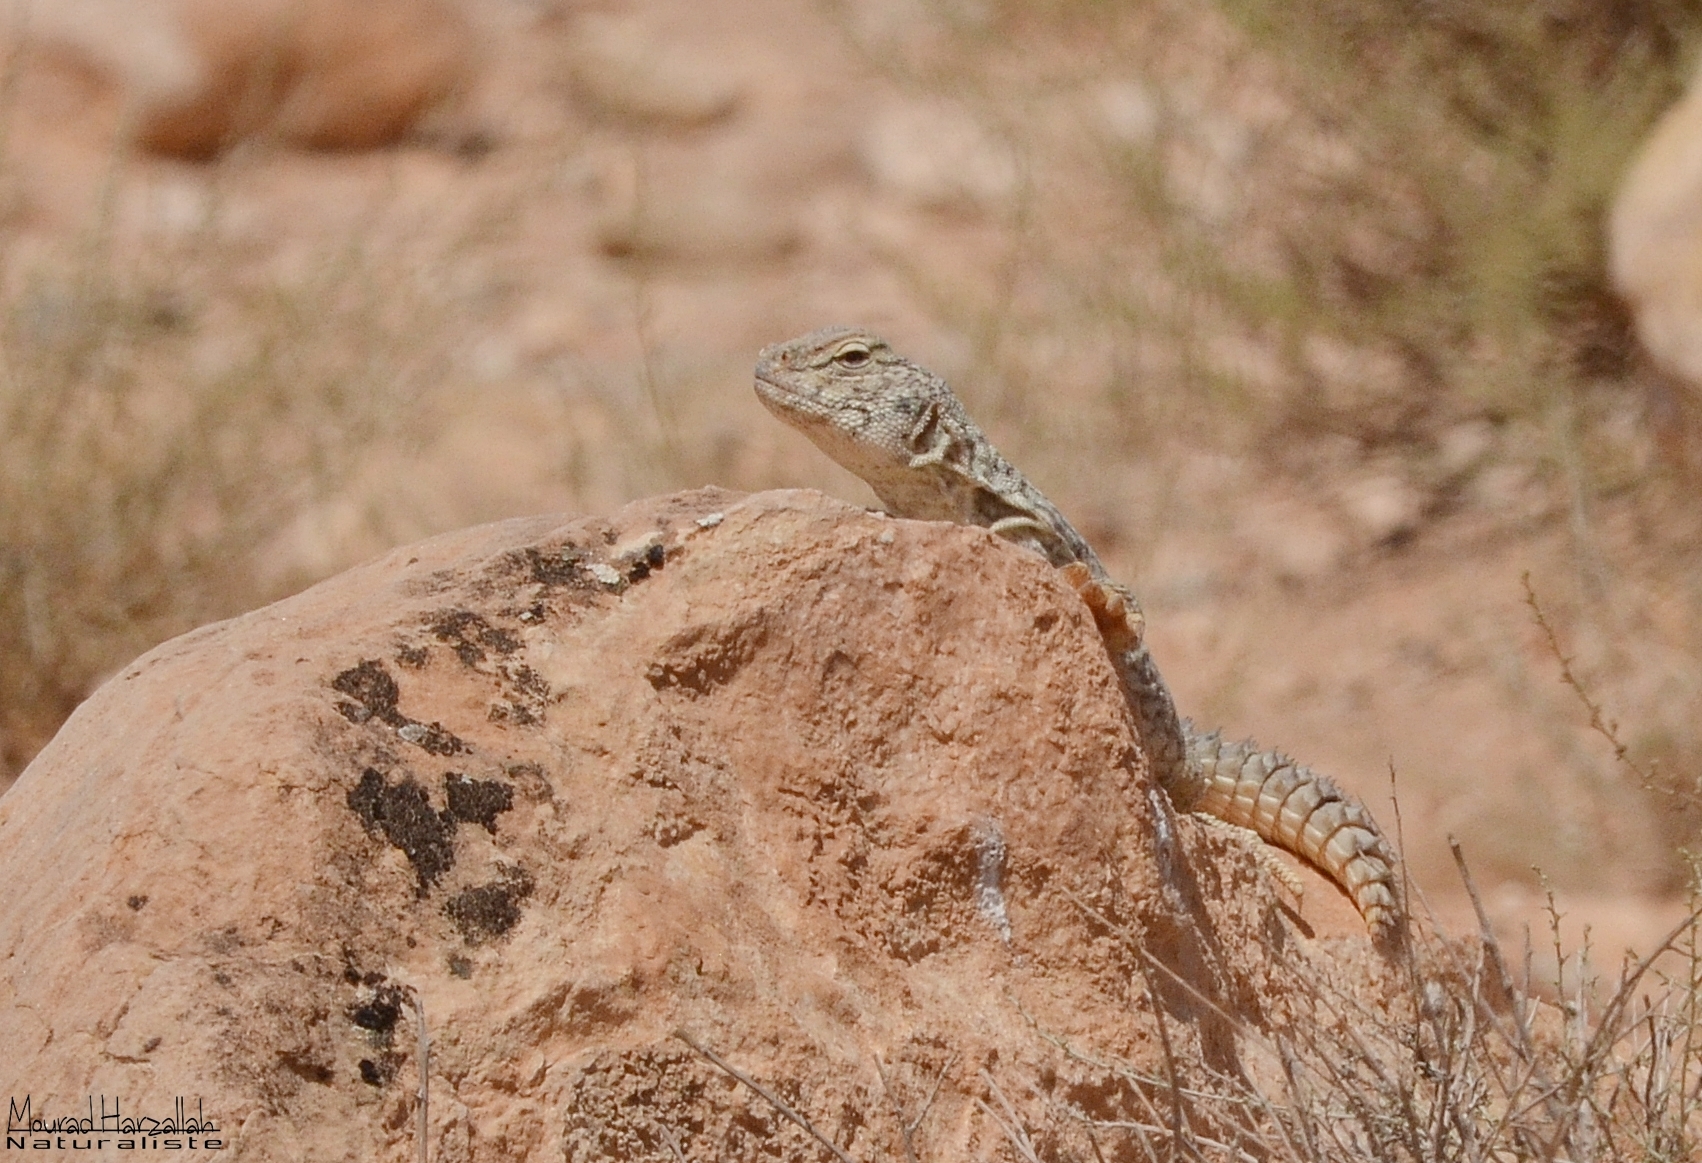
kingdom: Animalia
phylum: Chordata
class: Squamata
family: Agamidae
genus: Uromastyx
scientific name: Uromastyx nigriventris
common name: Moroccan spiny-tailed lizard
